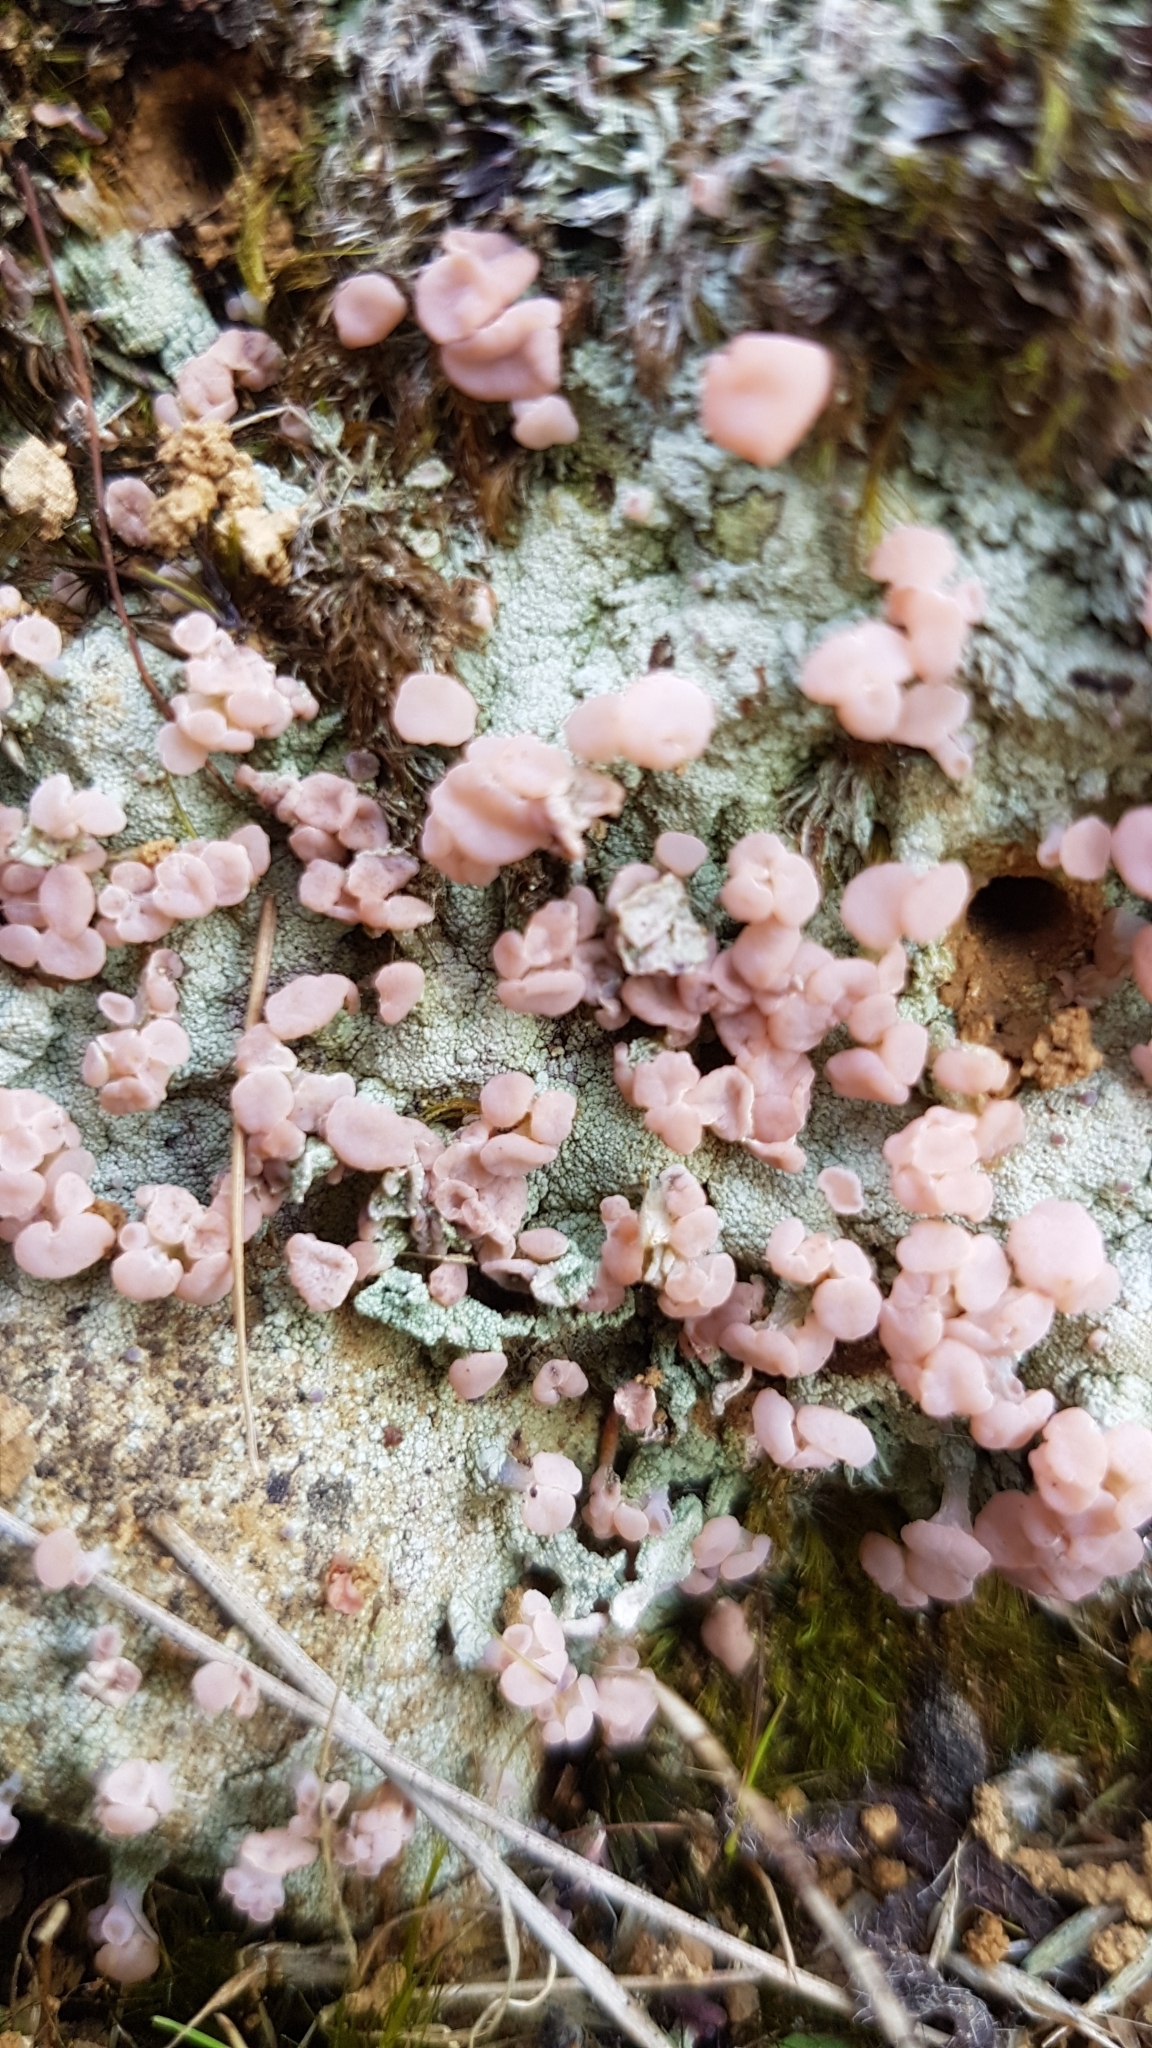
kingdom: Fungi
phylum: Ascomycota
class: Lecanoromycetes
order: Baeomycetales
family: Baeomycetaceae
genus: Baeomyces
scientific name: Baeomyces heteromorphus
